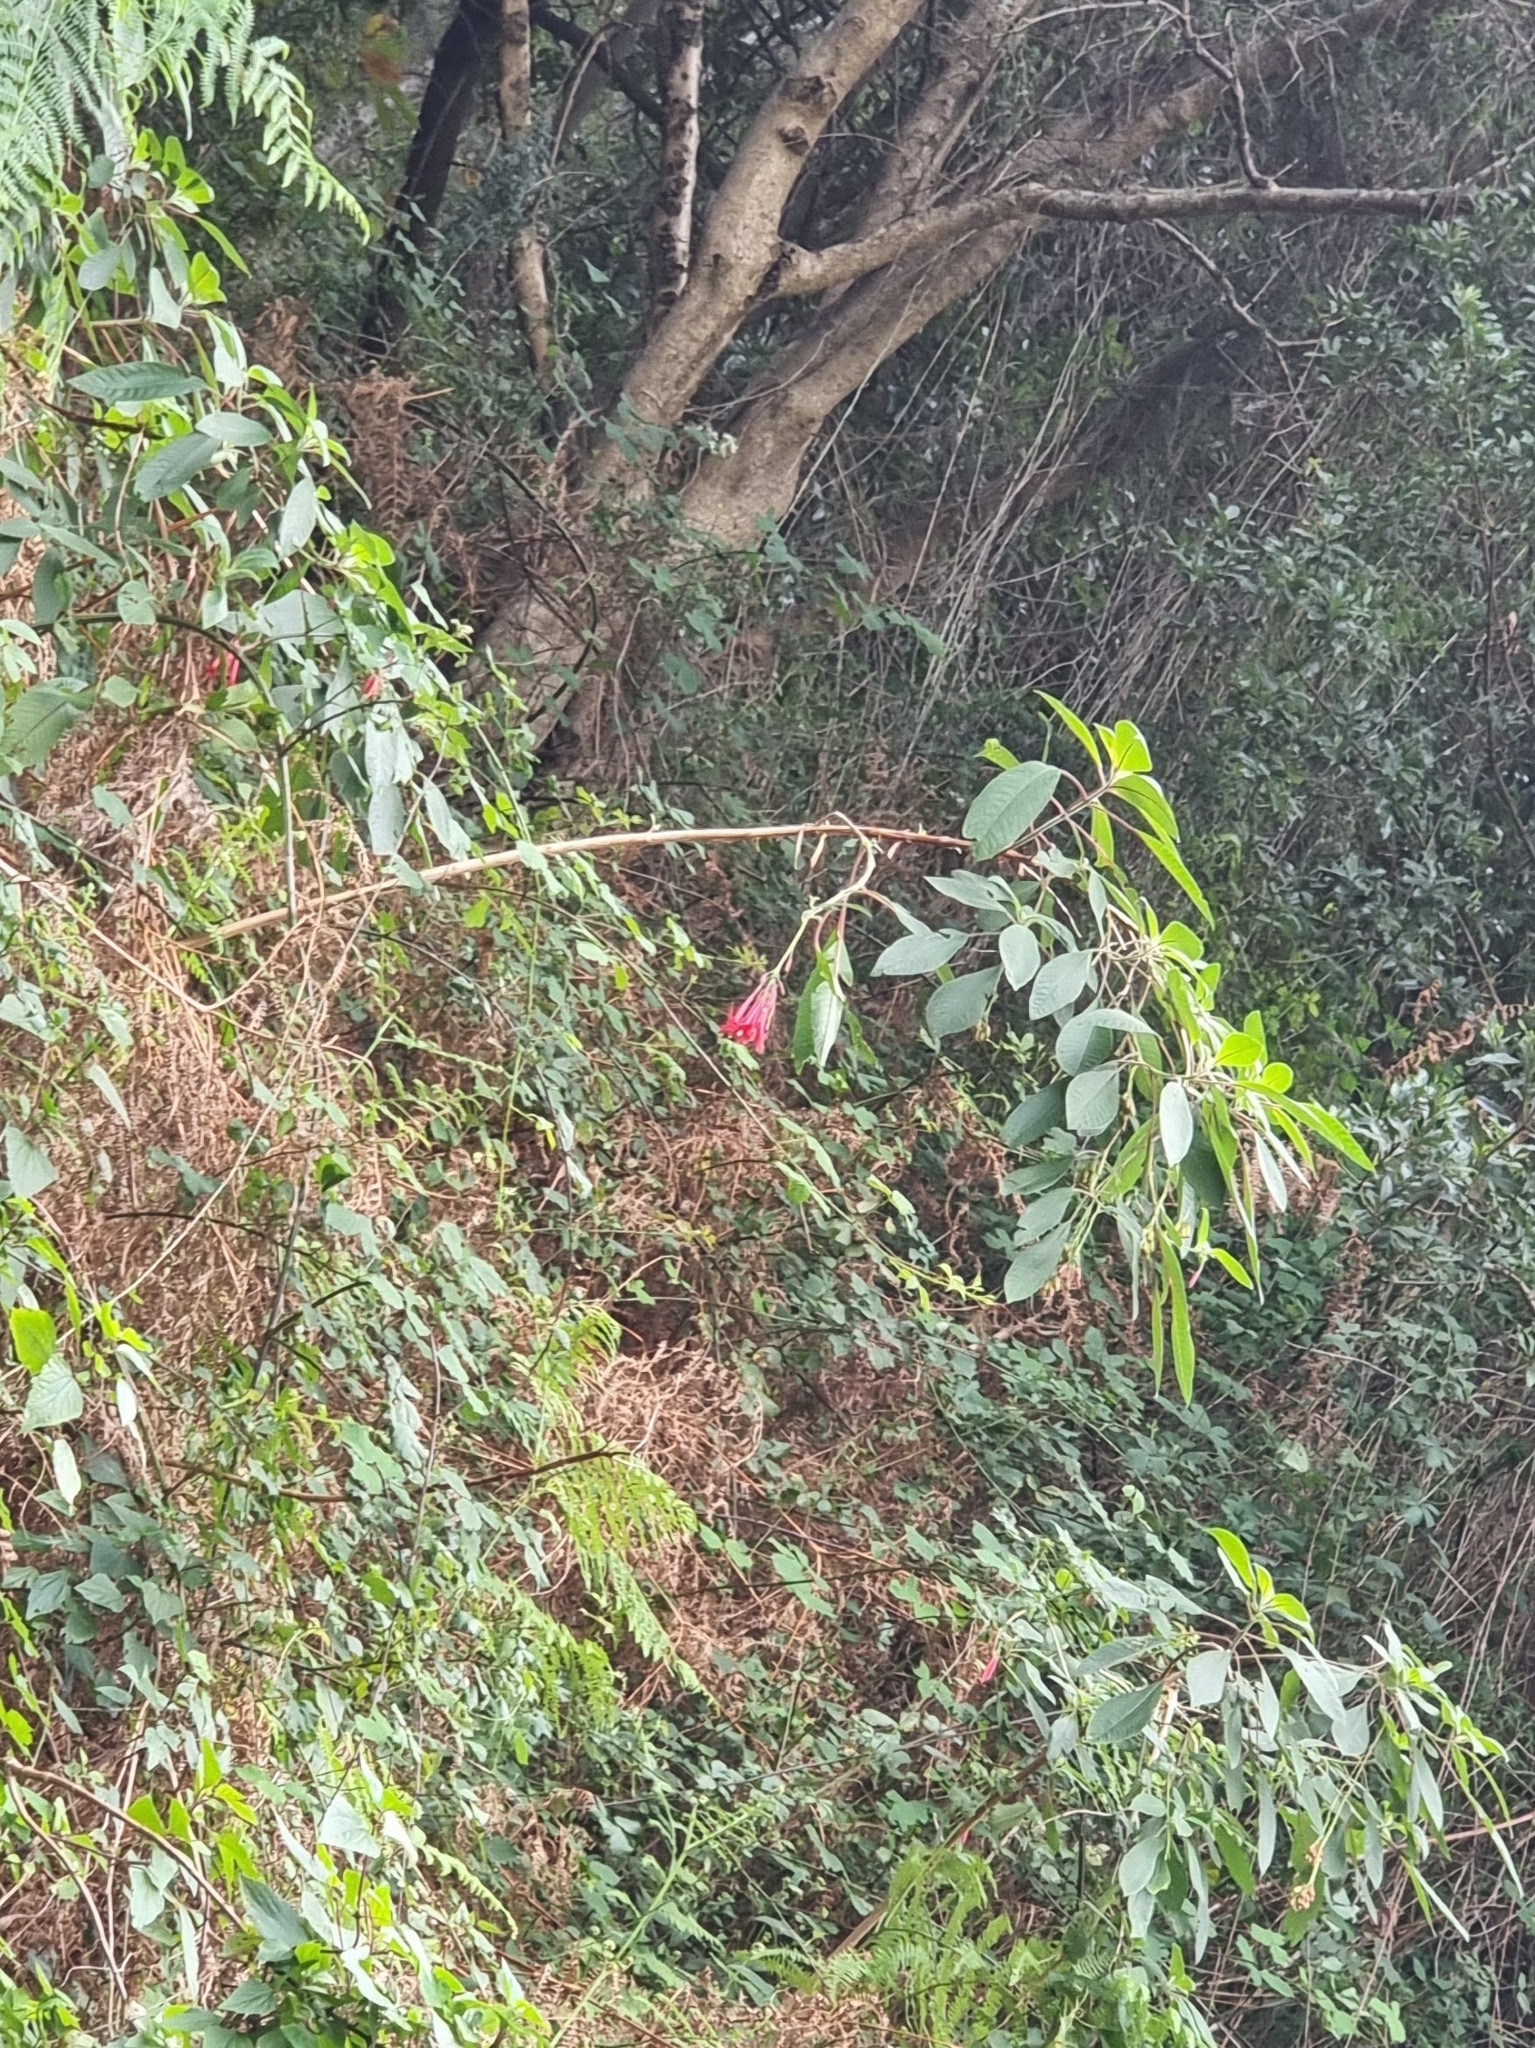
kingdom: Plantae
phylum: Tracheophyta
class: Magnoliopsida
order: Myrtales
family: Onagraceae
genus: Fuchsia
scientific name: Fuchsia boliviana
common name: Bolivian fuchsia
